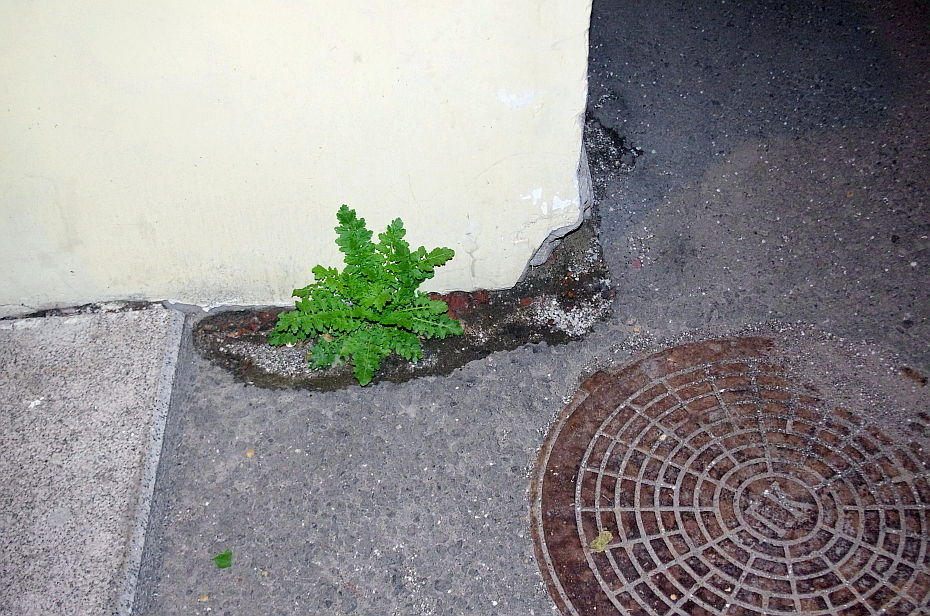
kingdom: Plantae
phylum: Tracheophyta
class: Magnoliopsida
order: Brassicales
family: Brassicaceae
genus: Rorippa
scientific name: Rorippa palustris
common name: Marsh yellow-cress
